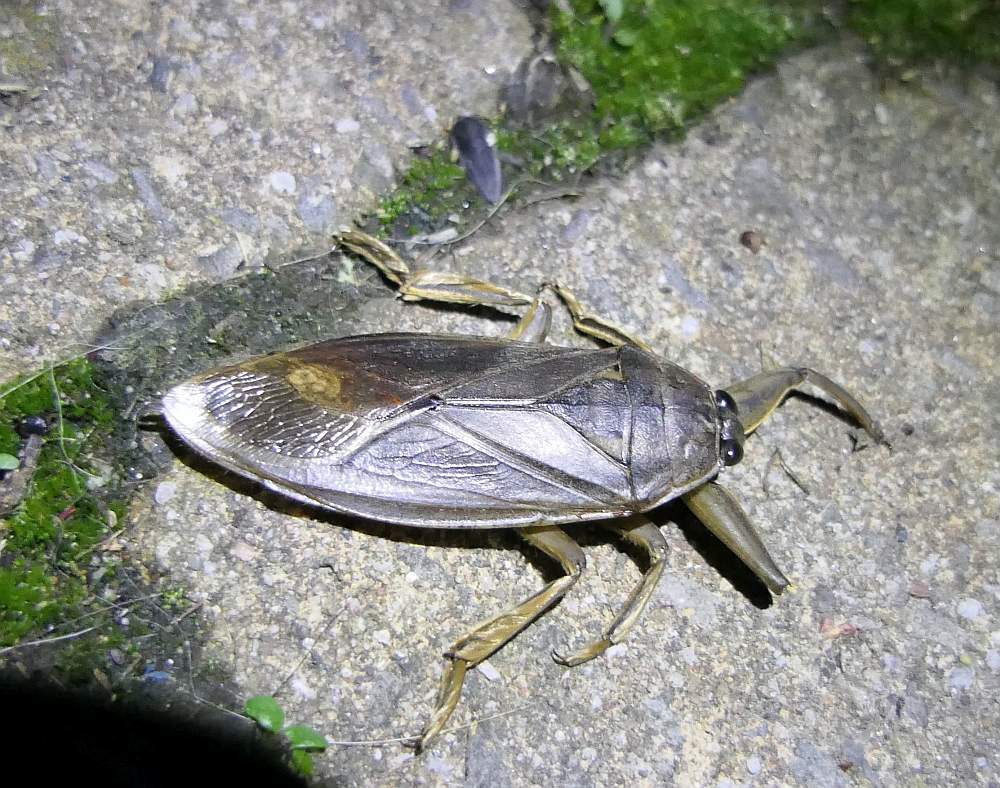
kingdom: Animalia
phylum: Arthropoda
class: Insecta
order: Hemiptera
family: Belostomatidae
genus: Lethocerus
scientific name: Lethocerus americanus
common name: Giant water bug
